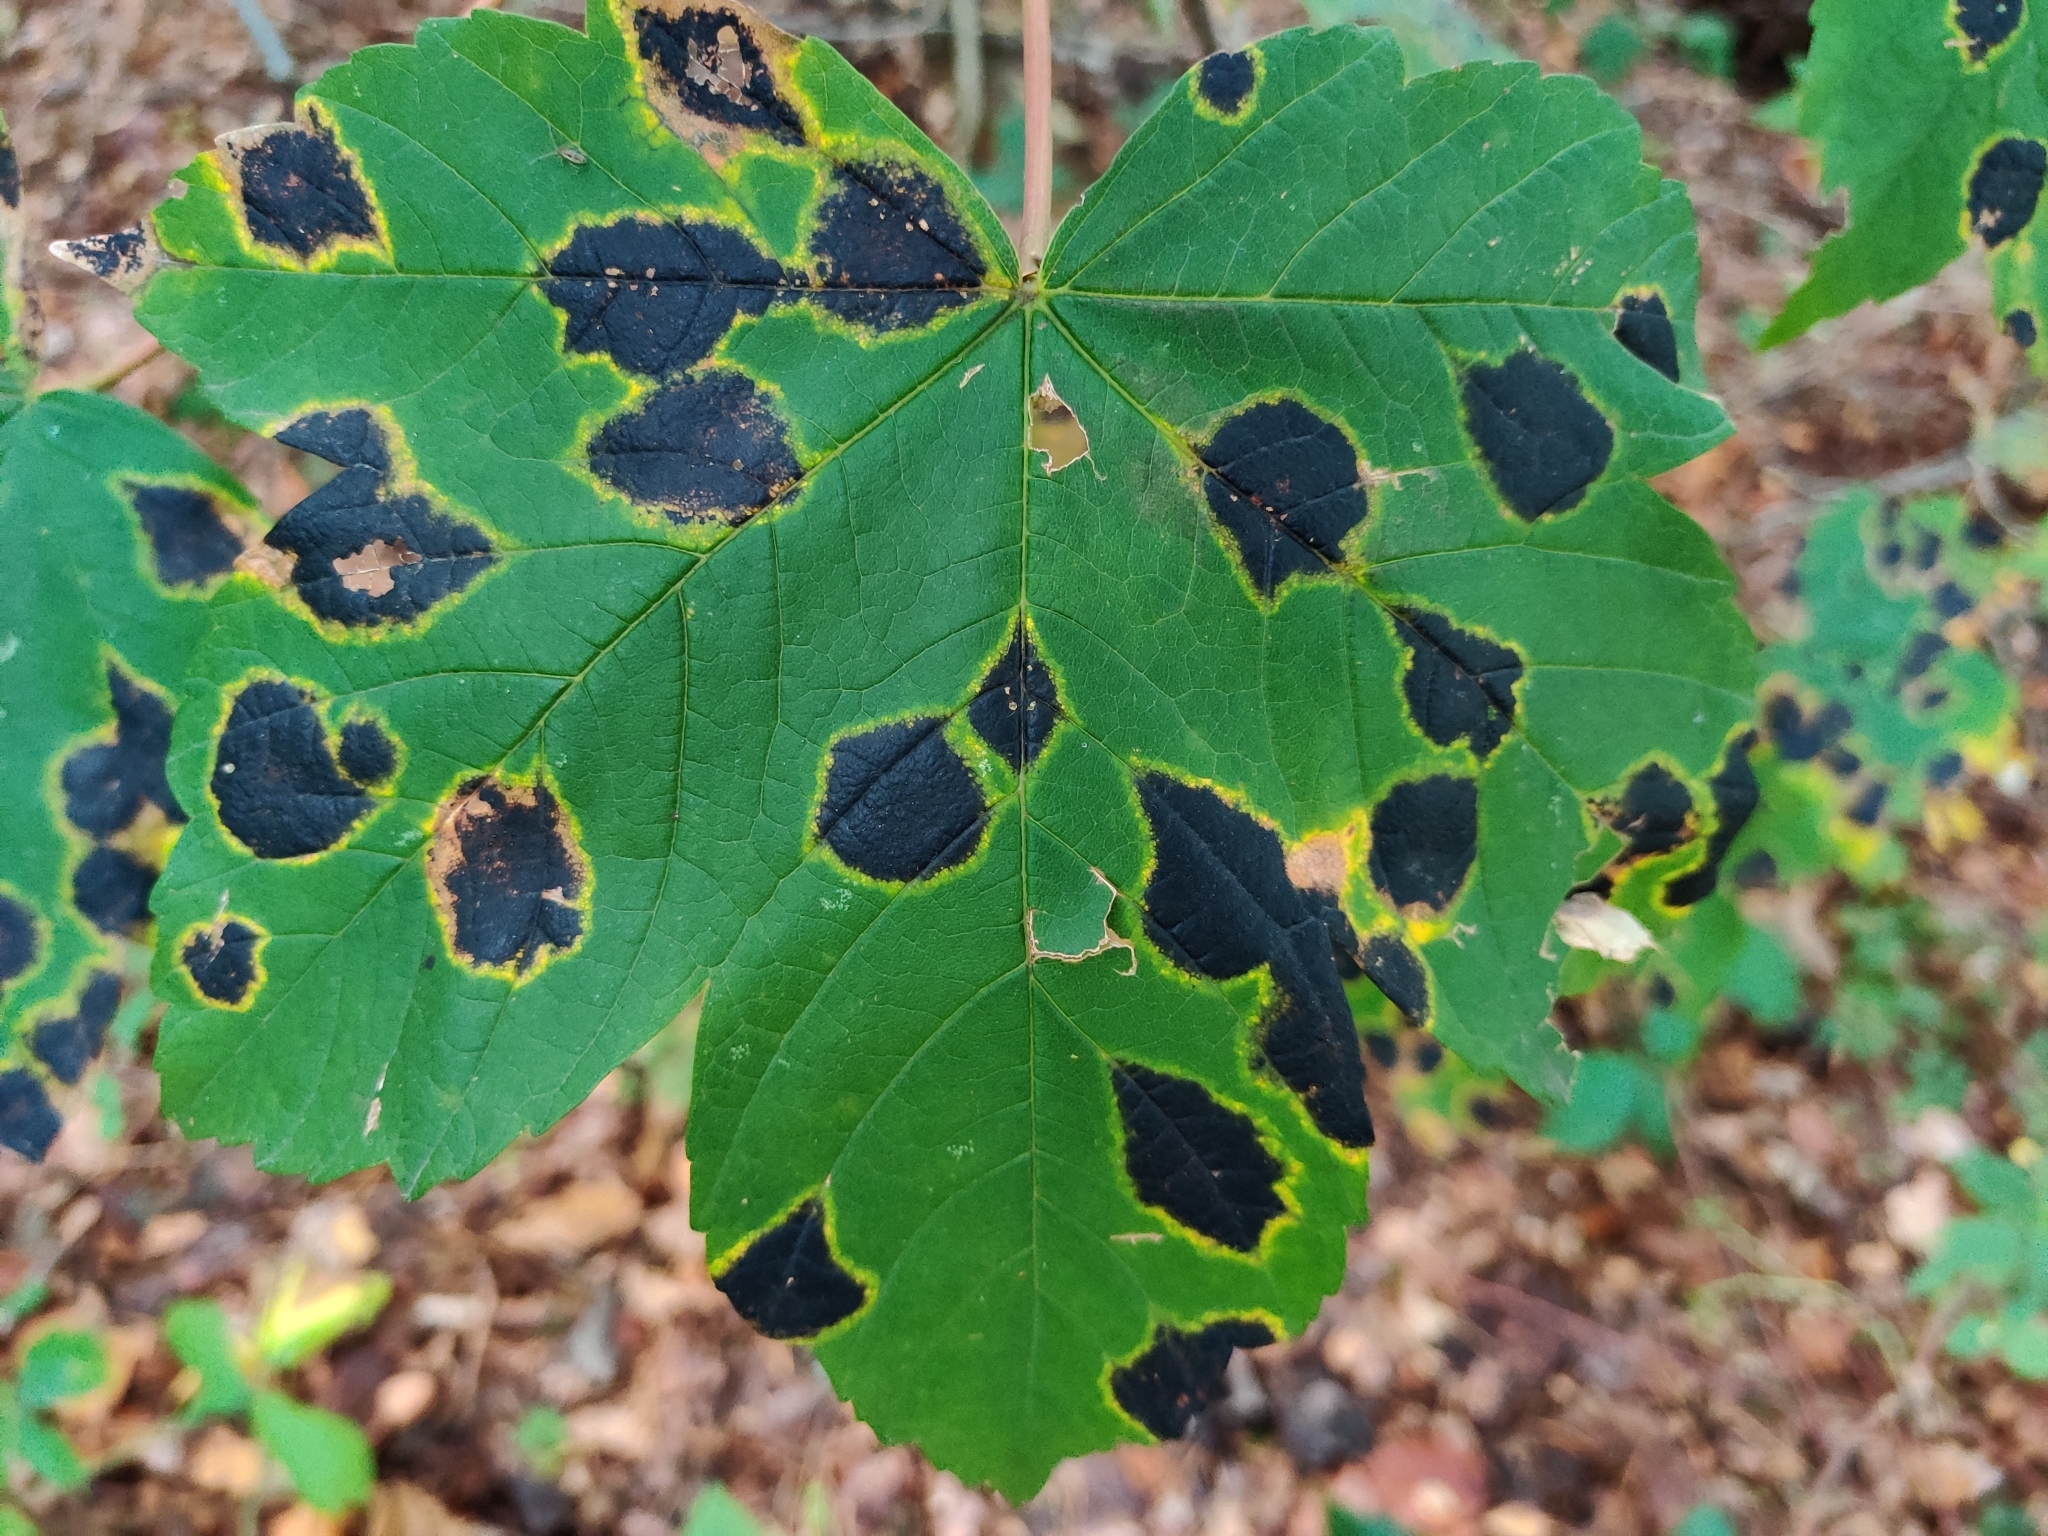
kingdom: Fungi
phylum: Ascomycota
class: Leotiomycetes
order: Rhytismatales
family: Rhytismataceae
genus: Rhytisma
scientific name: Rhytisma acerinum
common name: European tar spot
